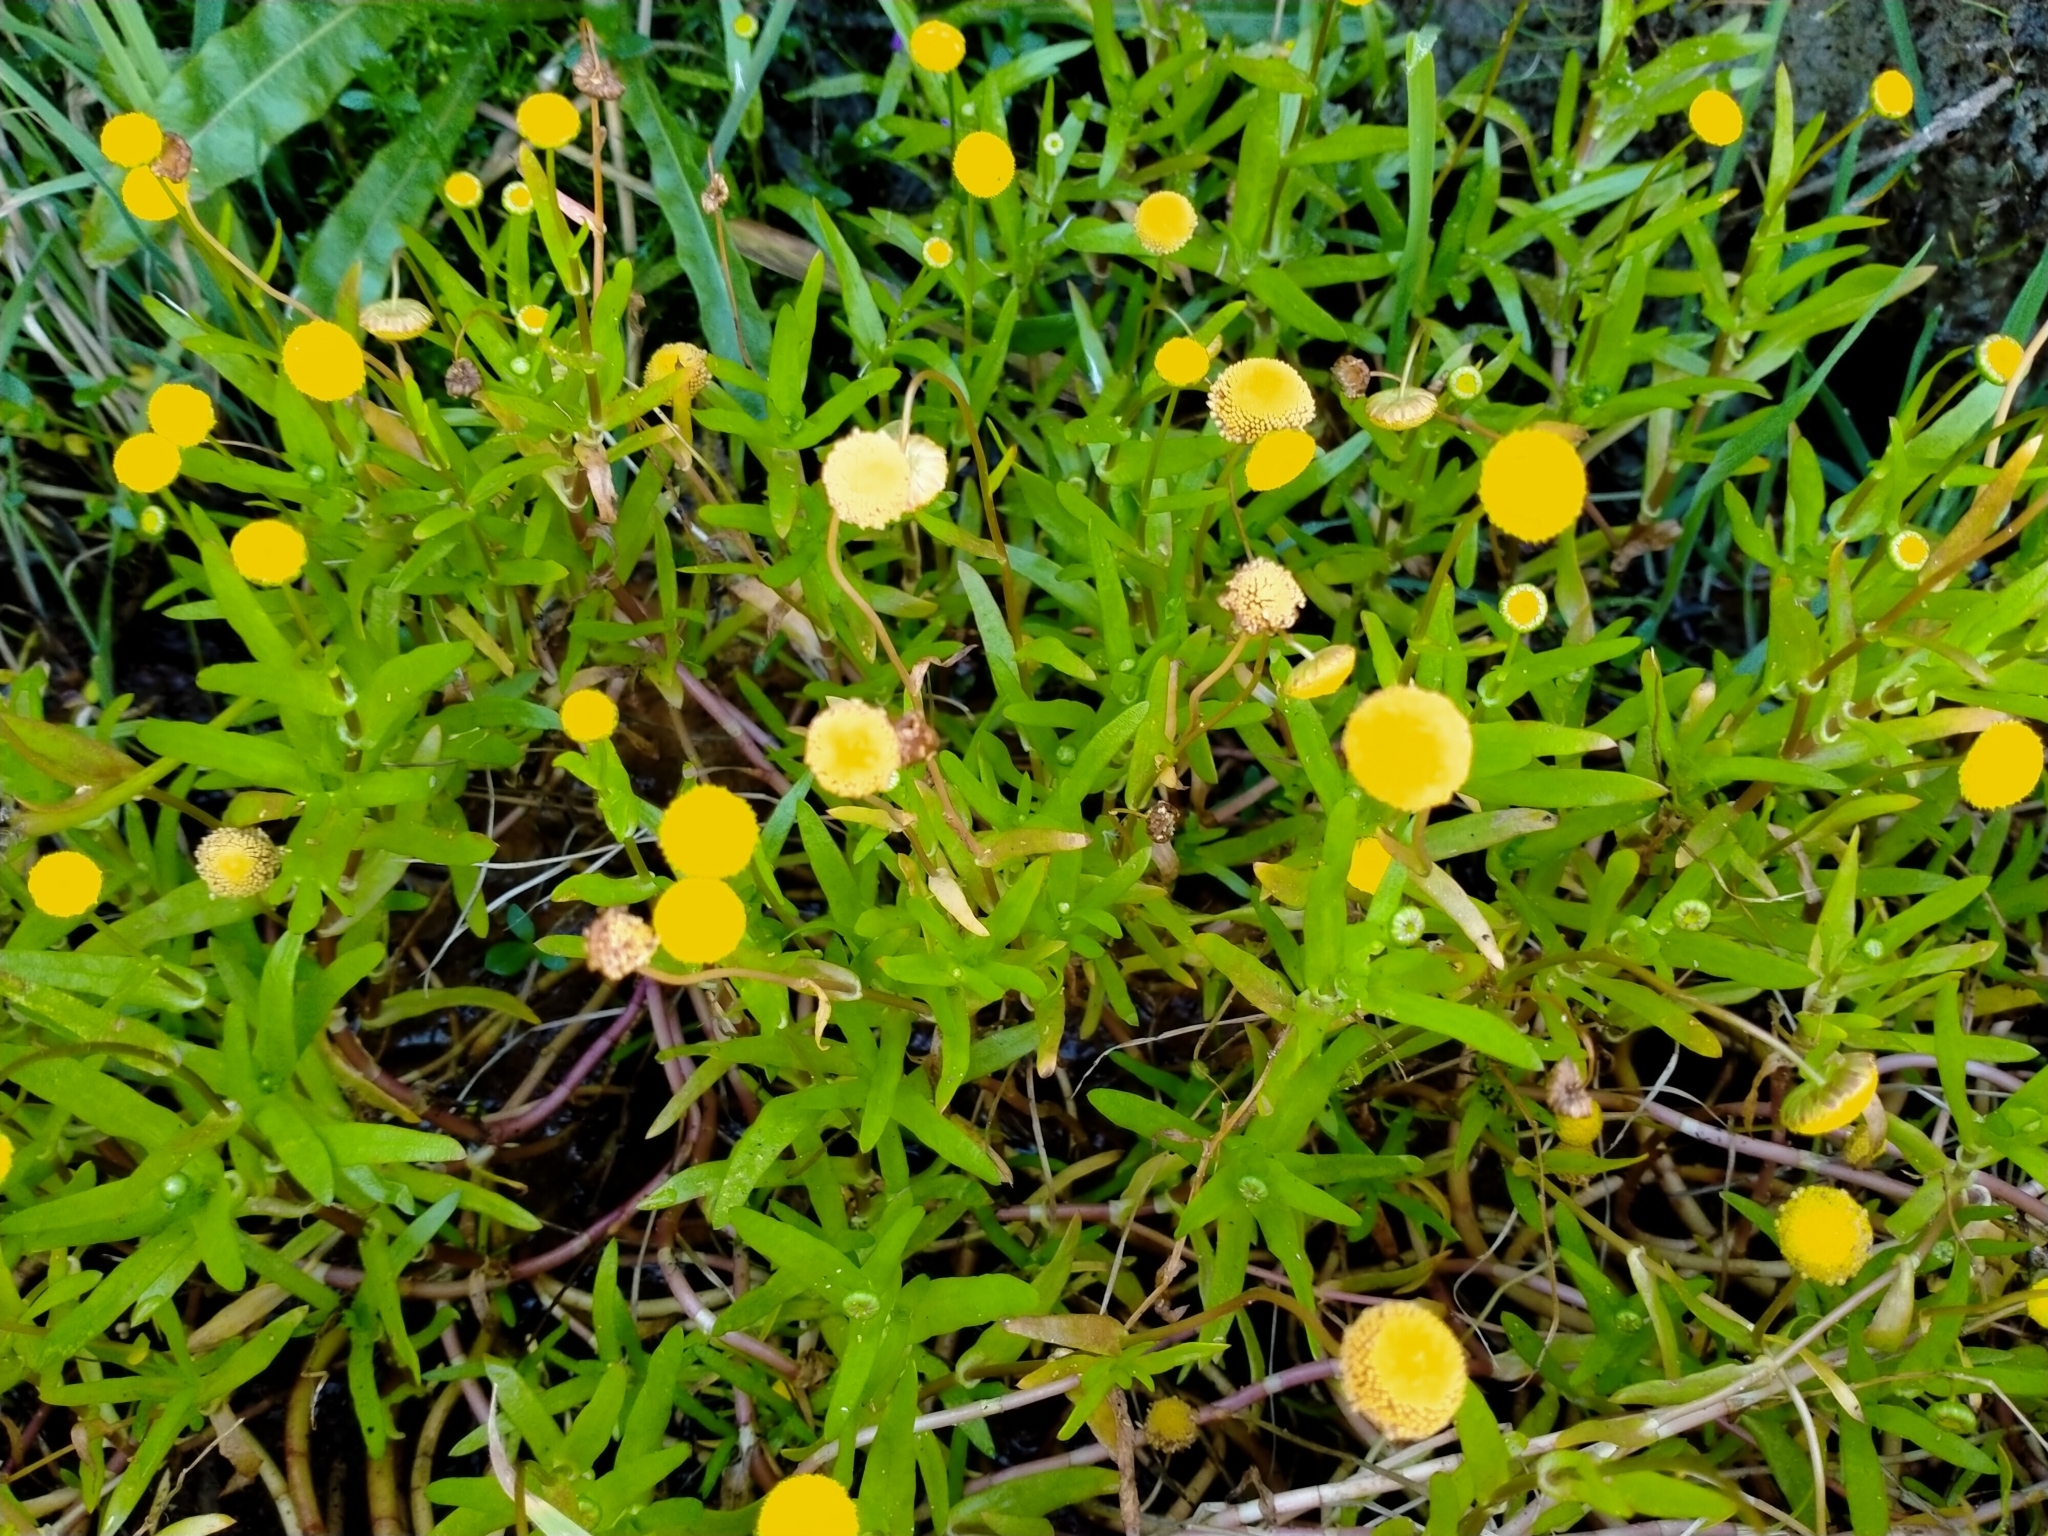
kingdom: Plantae
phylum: Tracheophyta
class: Magnoliopsida
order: Asterales
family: Asteraceae
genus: Cotula
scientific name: Cotula coronopifolia
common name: Buttonweed
